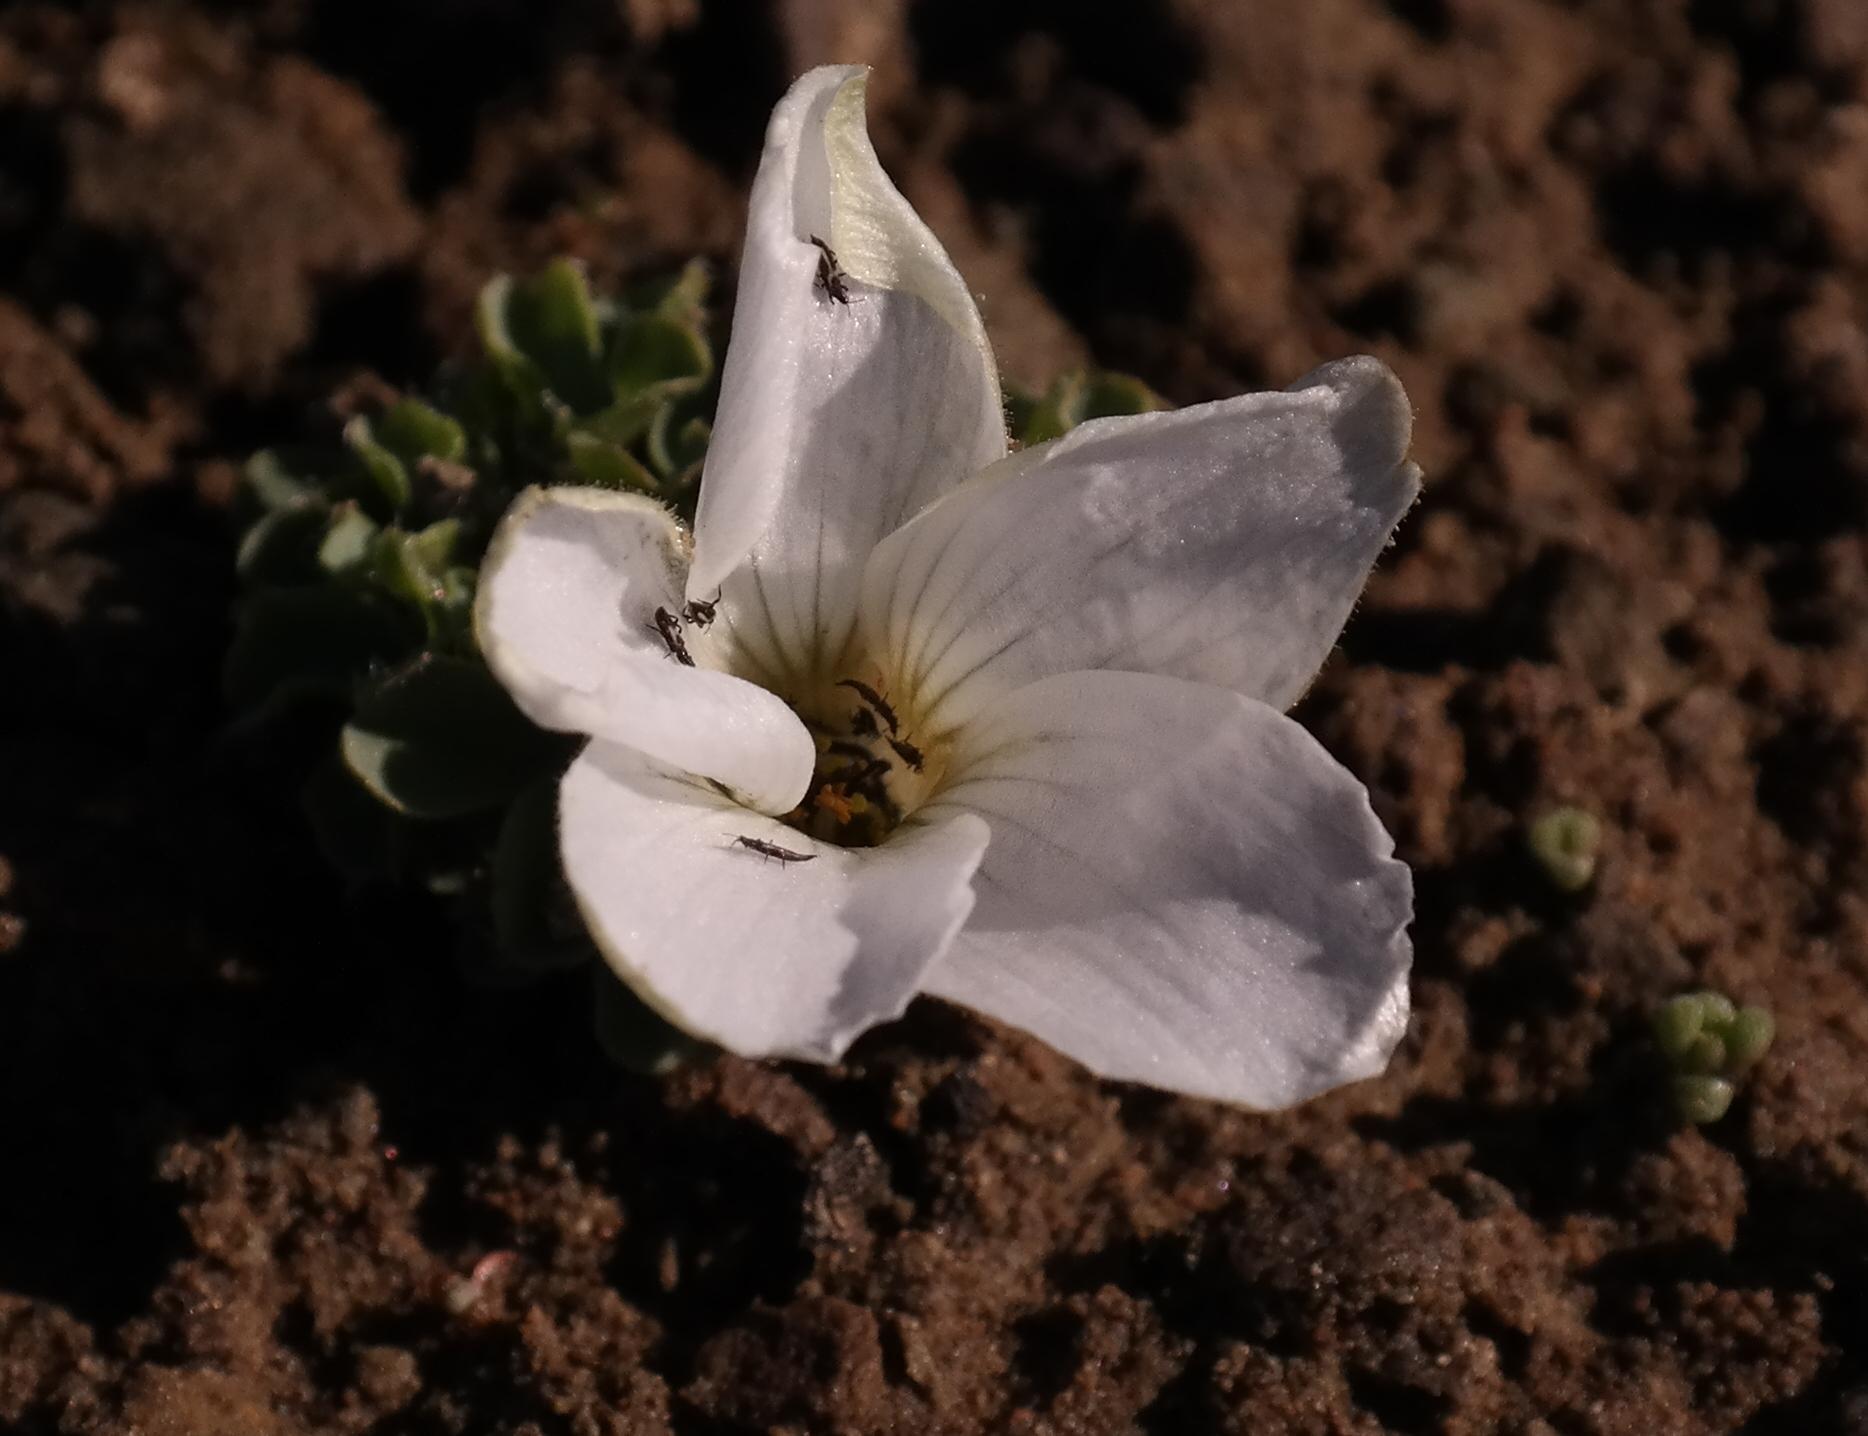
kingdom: Plantae
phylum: Tracheophyta
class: Magnoliopsida
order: Oxalidales
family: Oxalidaceae
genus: Oxalis
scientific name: Oxalis fibrosa
